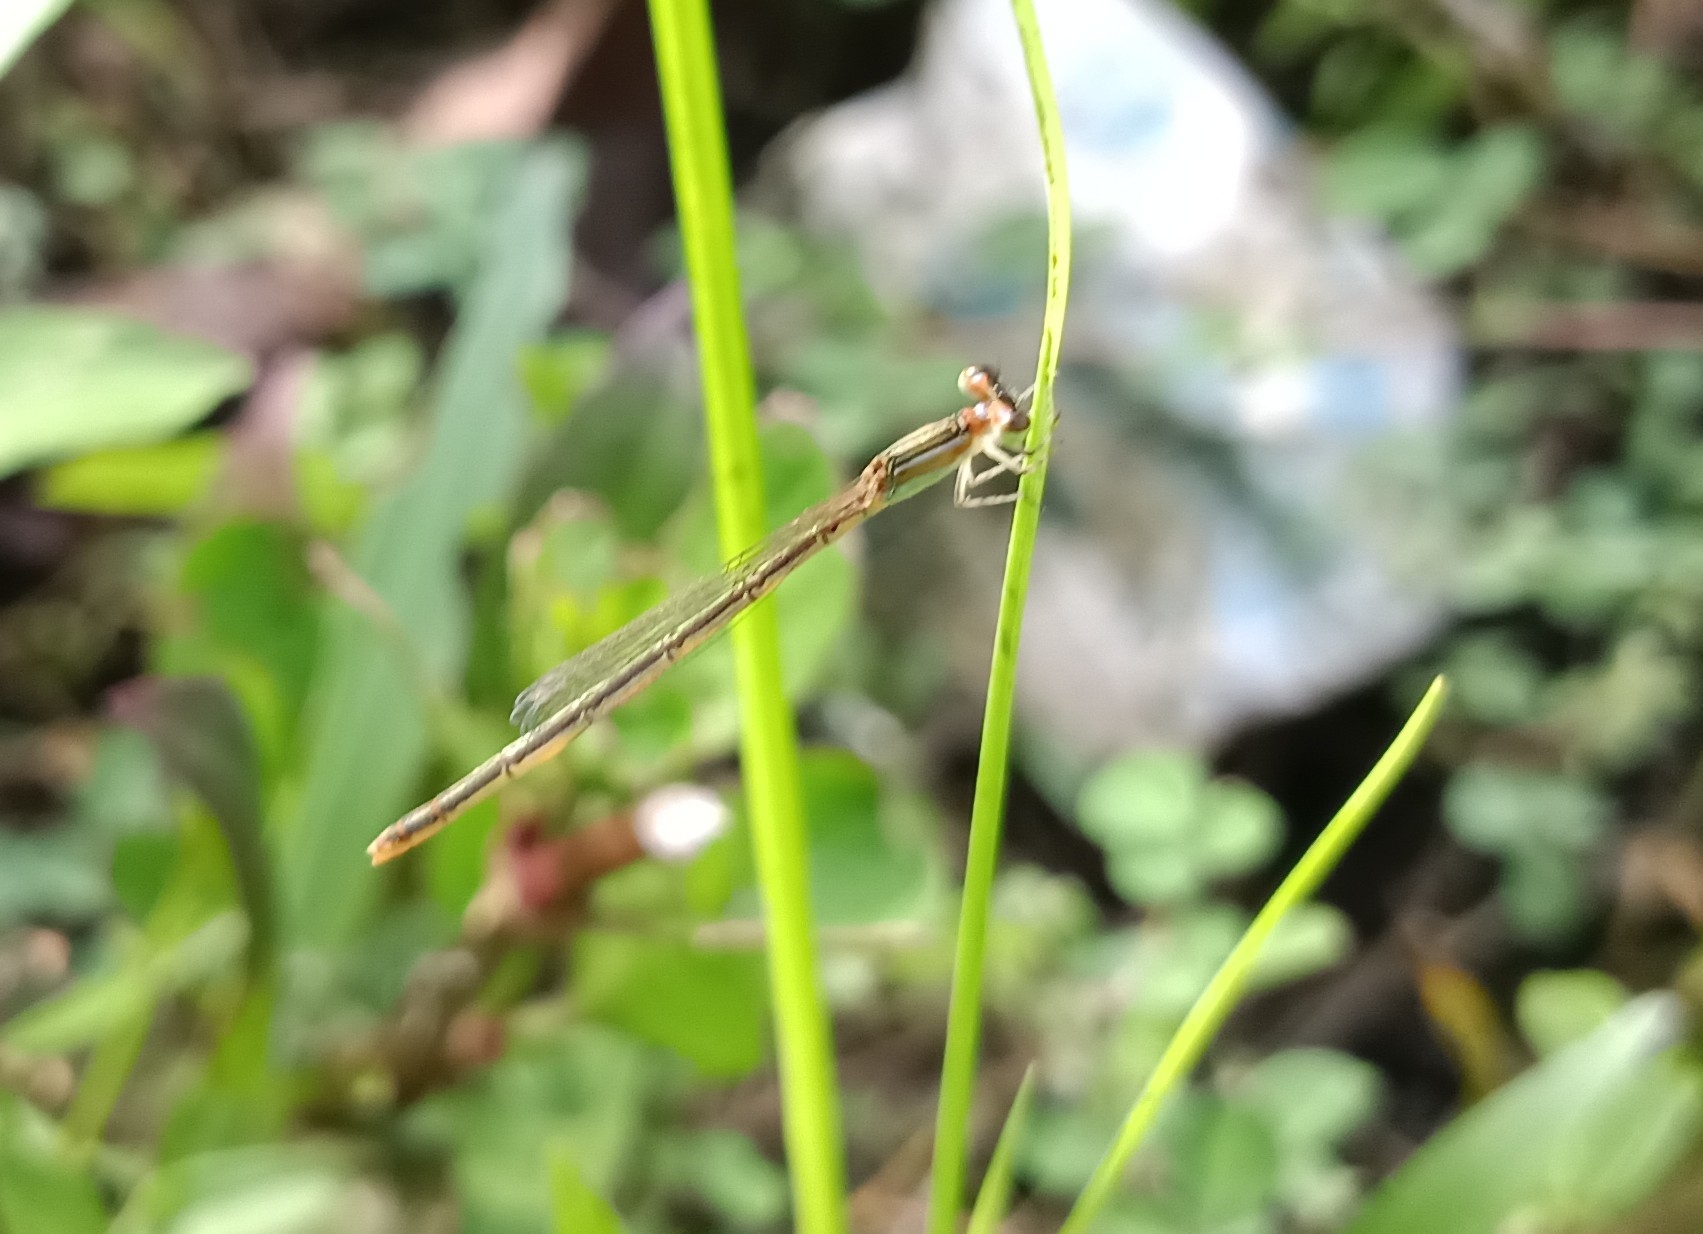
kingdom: Animalia
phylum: Arthropoda
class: Insecta
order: Odonata
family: Coenagrionidae
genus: Agriocnemis
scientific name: Agriocnemis pygmaea
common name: Pygmy wisp
